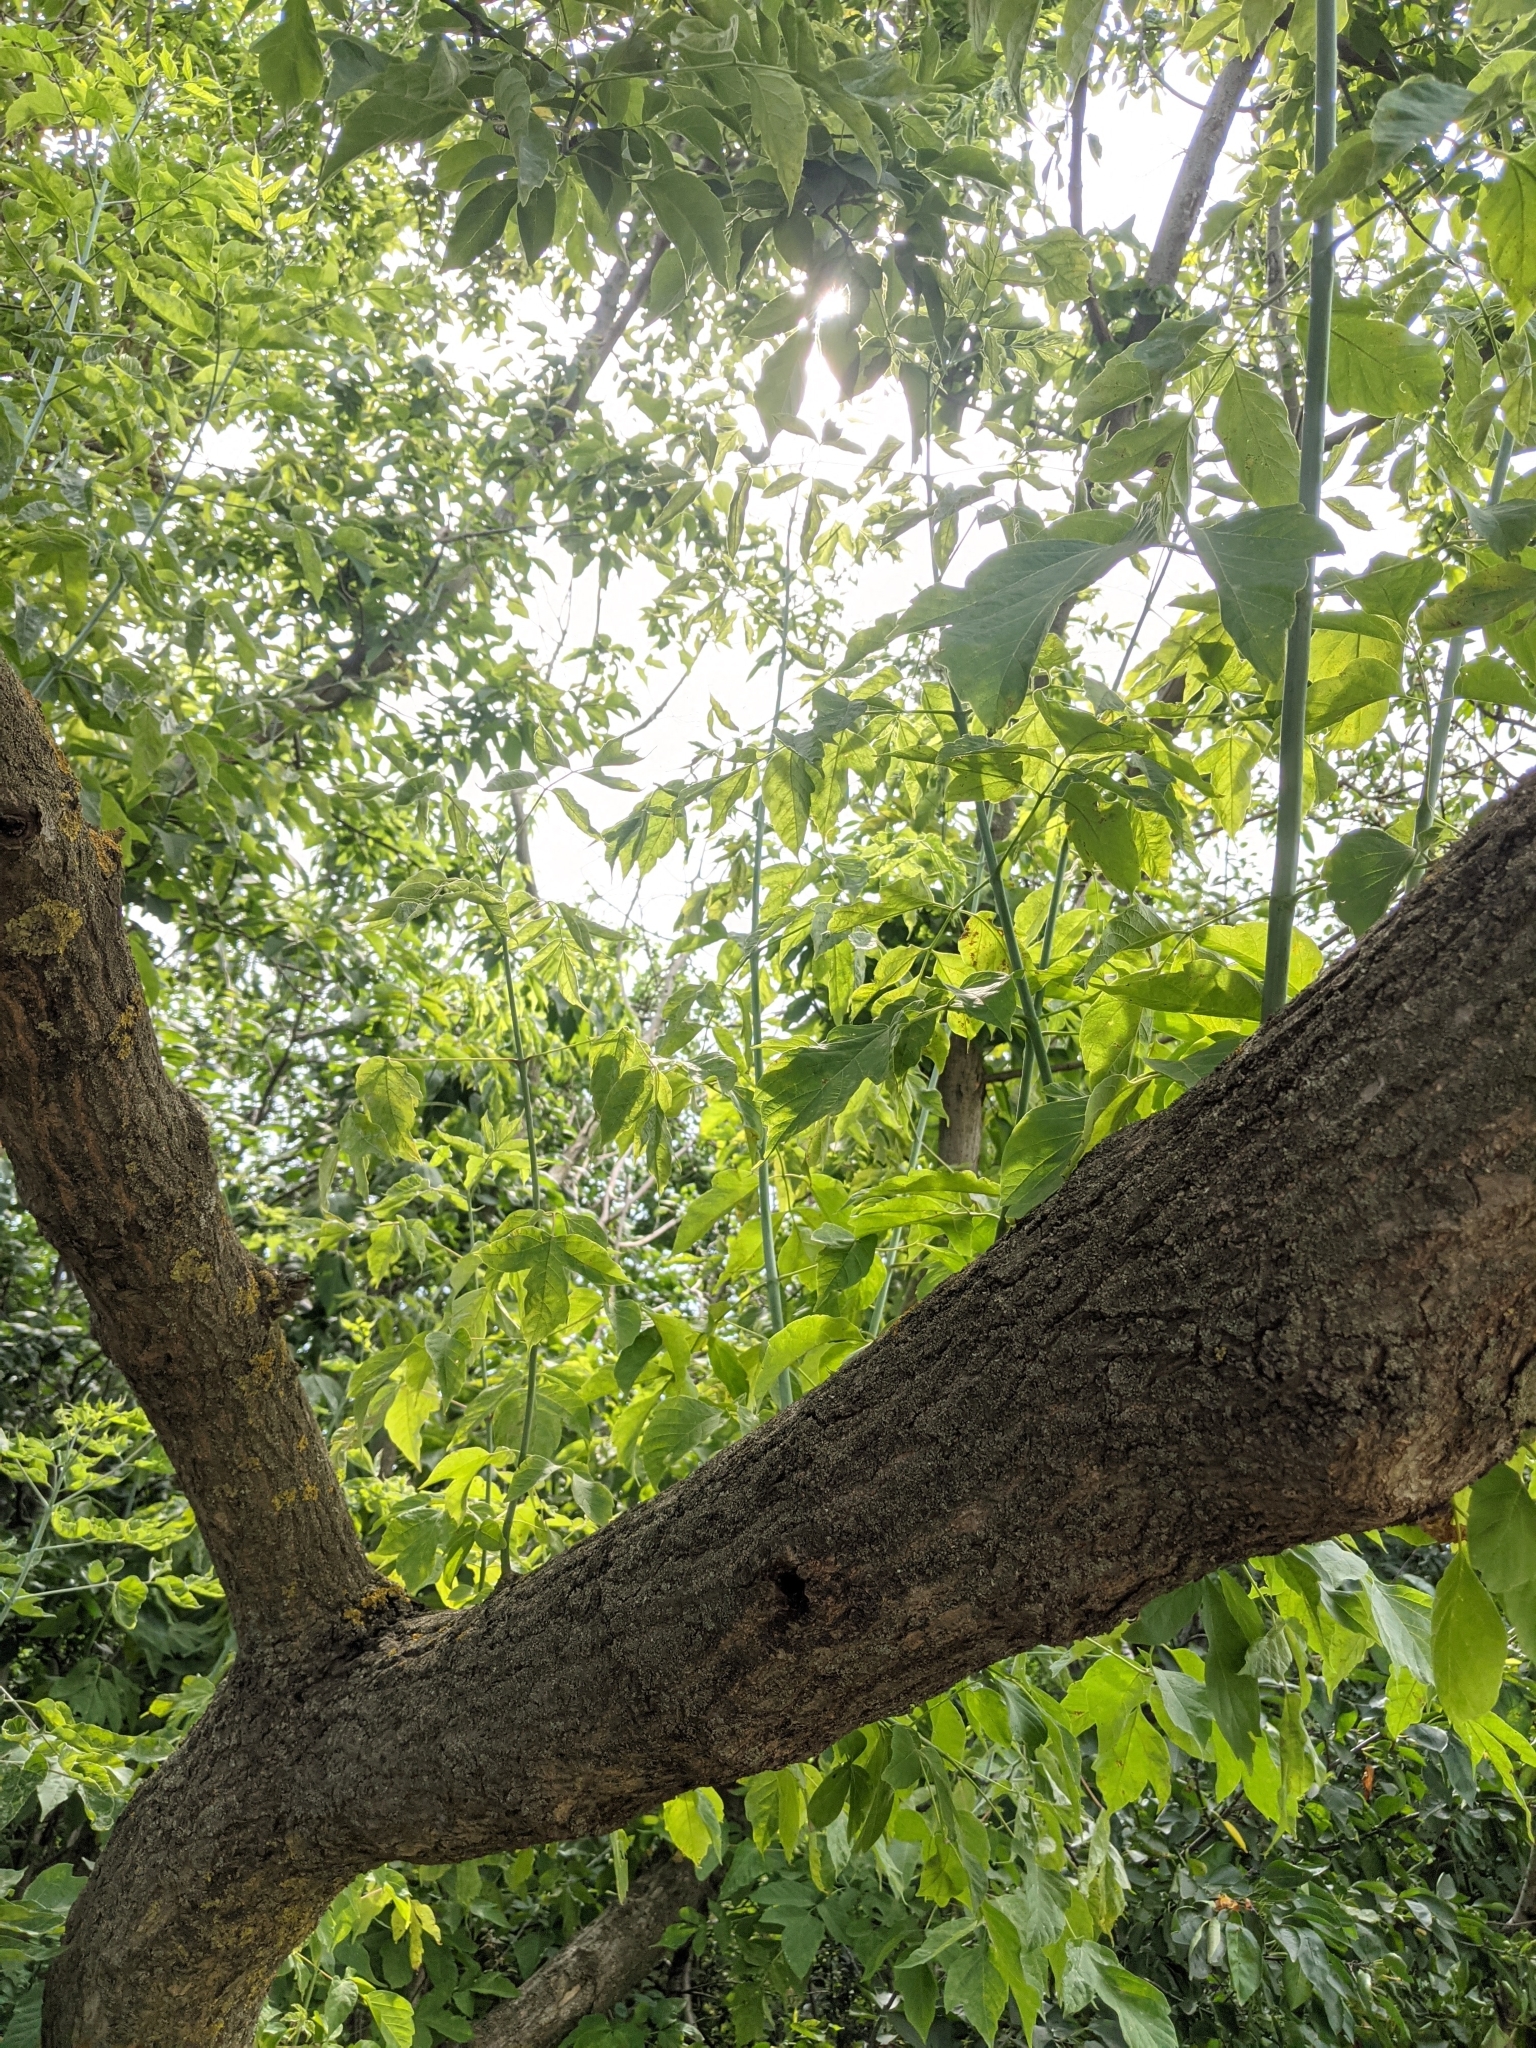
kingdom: Plantae
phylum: Tracheophyta
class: Magnoliopsida
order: Sapindales
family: Sapindaceae
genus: Acer
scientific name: Acer negundo
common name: Ashleaf maple
